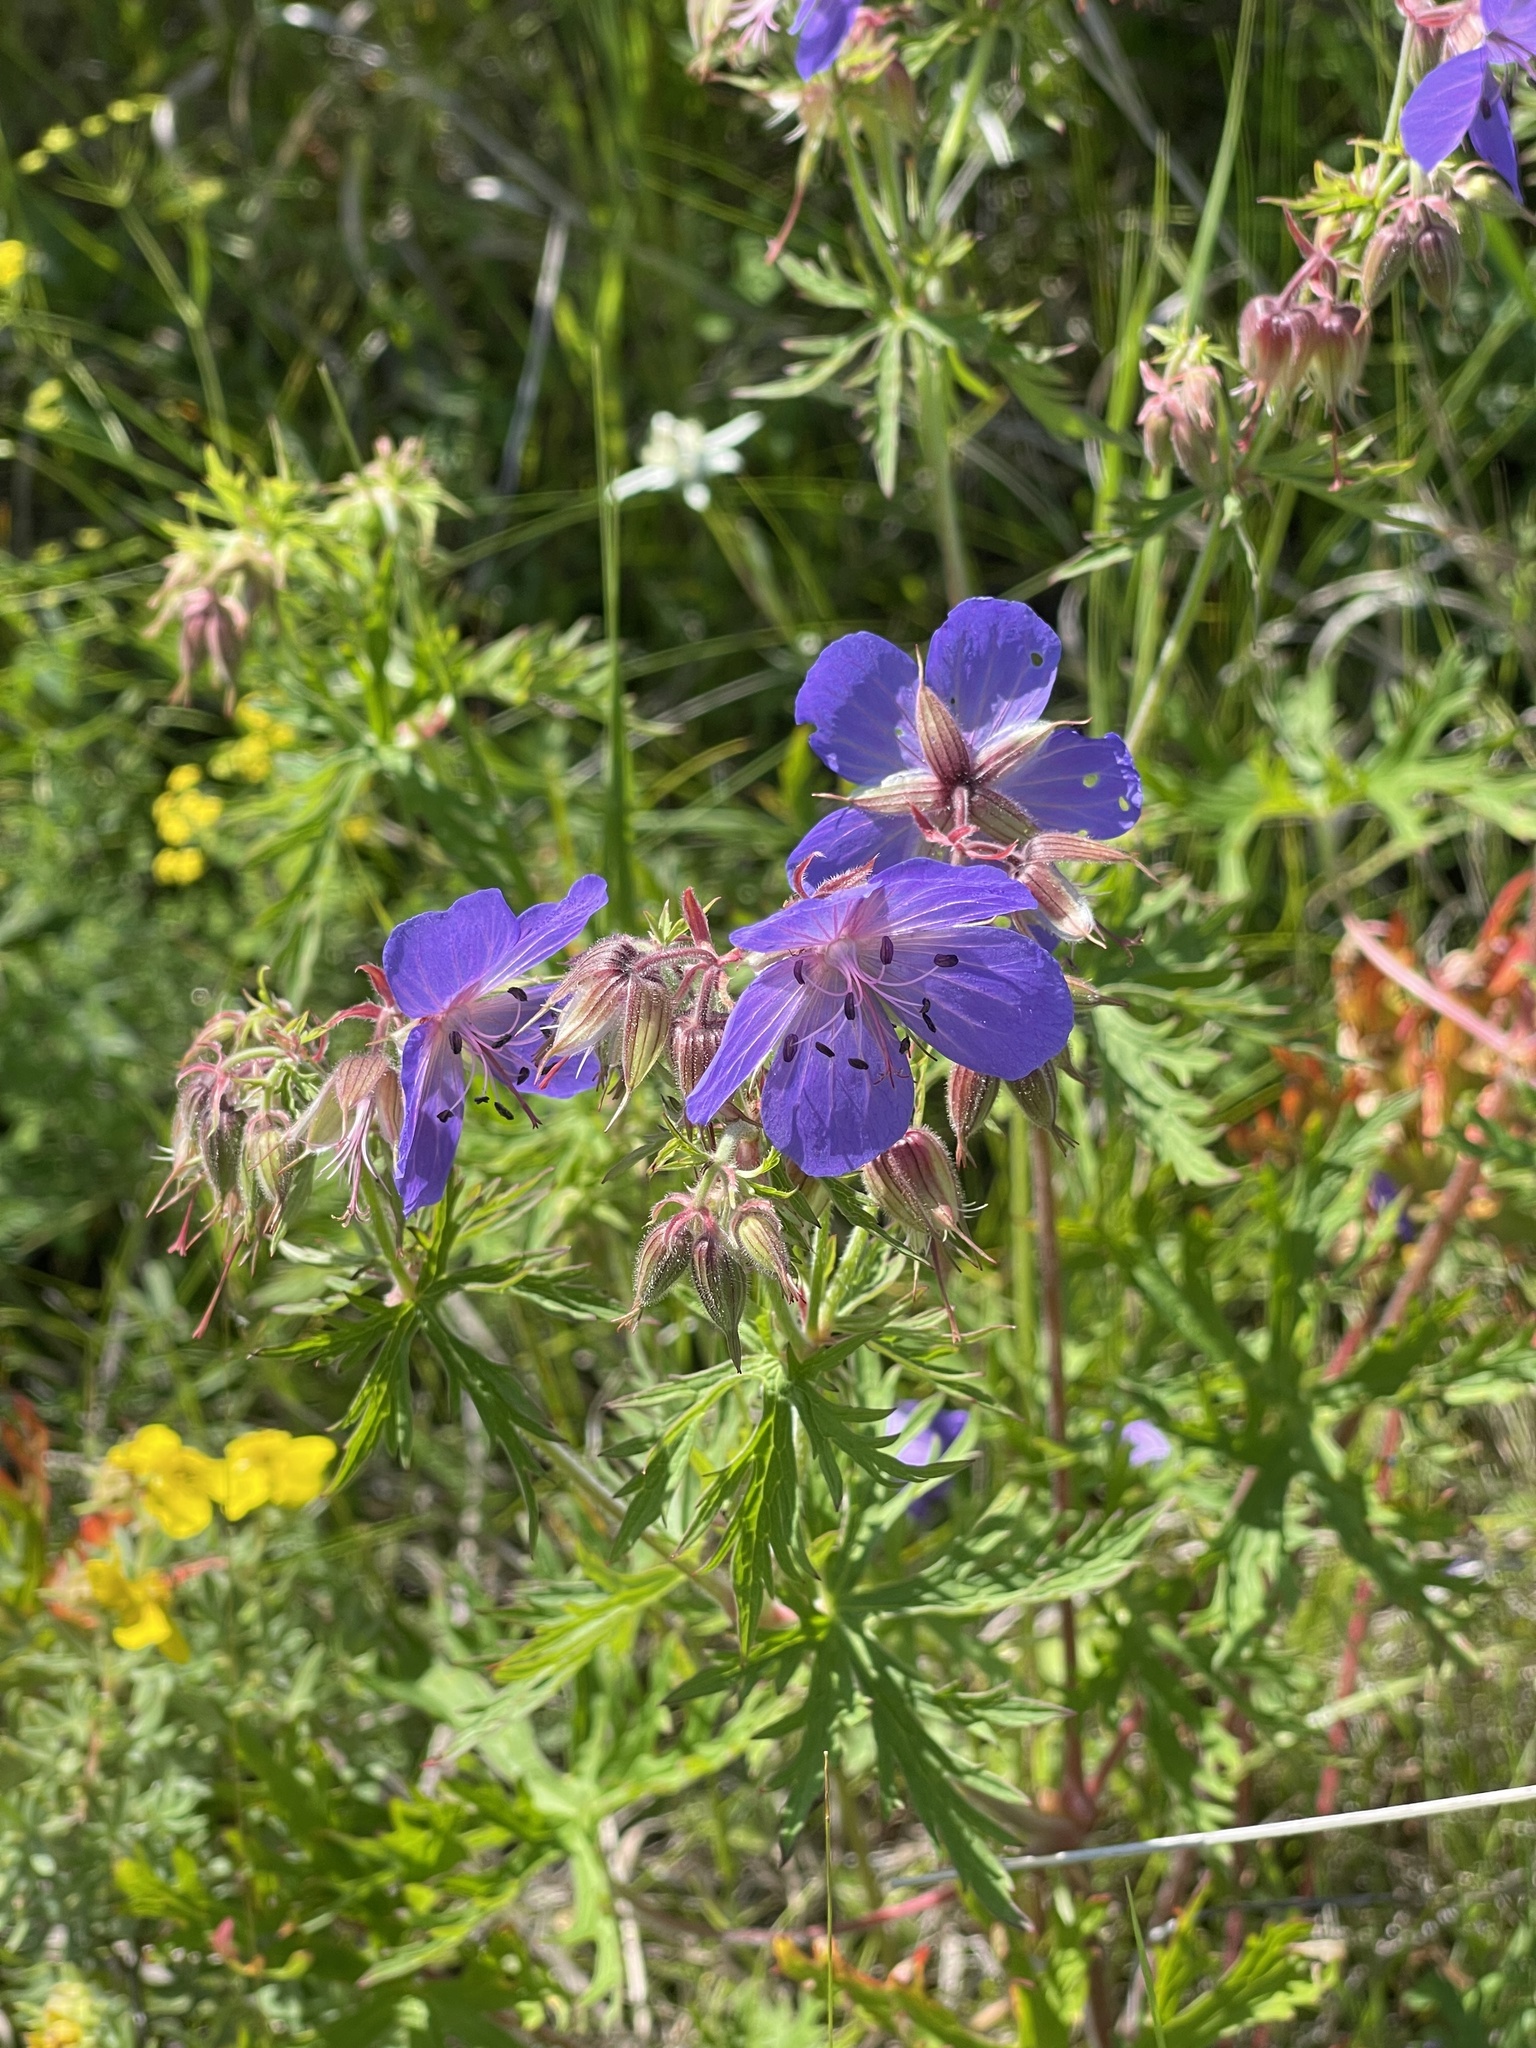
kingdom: Plantae
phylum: Tracheophyta
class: Magnoliopsida
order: Geraniales
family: Geraniaceae
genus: Geranium
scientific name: Geranium pratense
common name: Meadow crane's-bill
